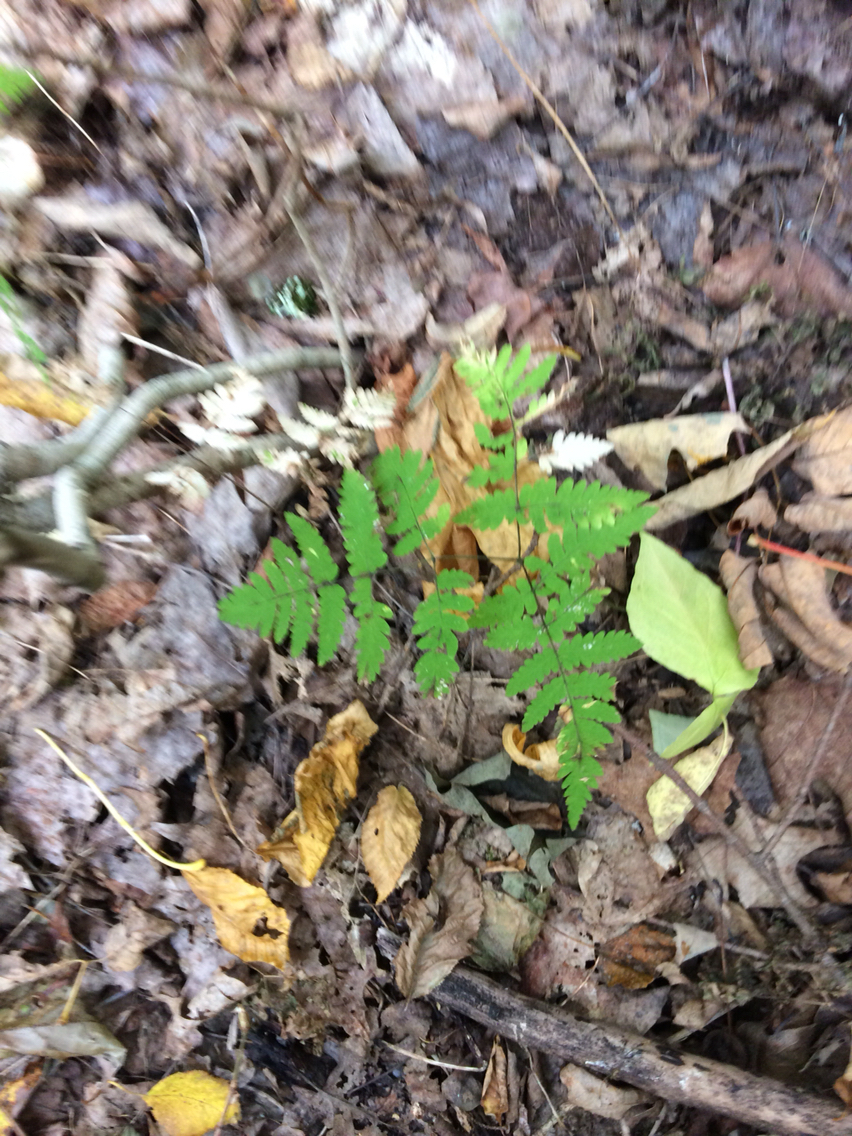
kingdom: Plantae
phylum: Tracheophyta
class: Polypodiopsida
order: Polypodiales
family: Cystopteridaceae
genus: Gymnocarpium
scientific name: Gymnocarpium dryopteris
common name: Oak fern
